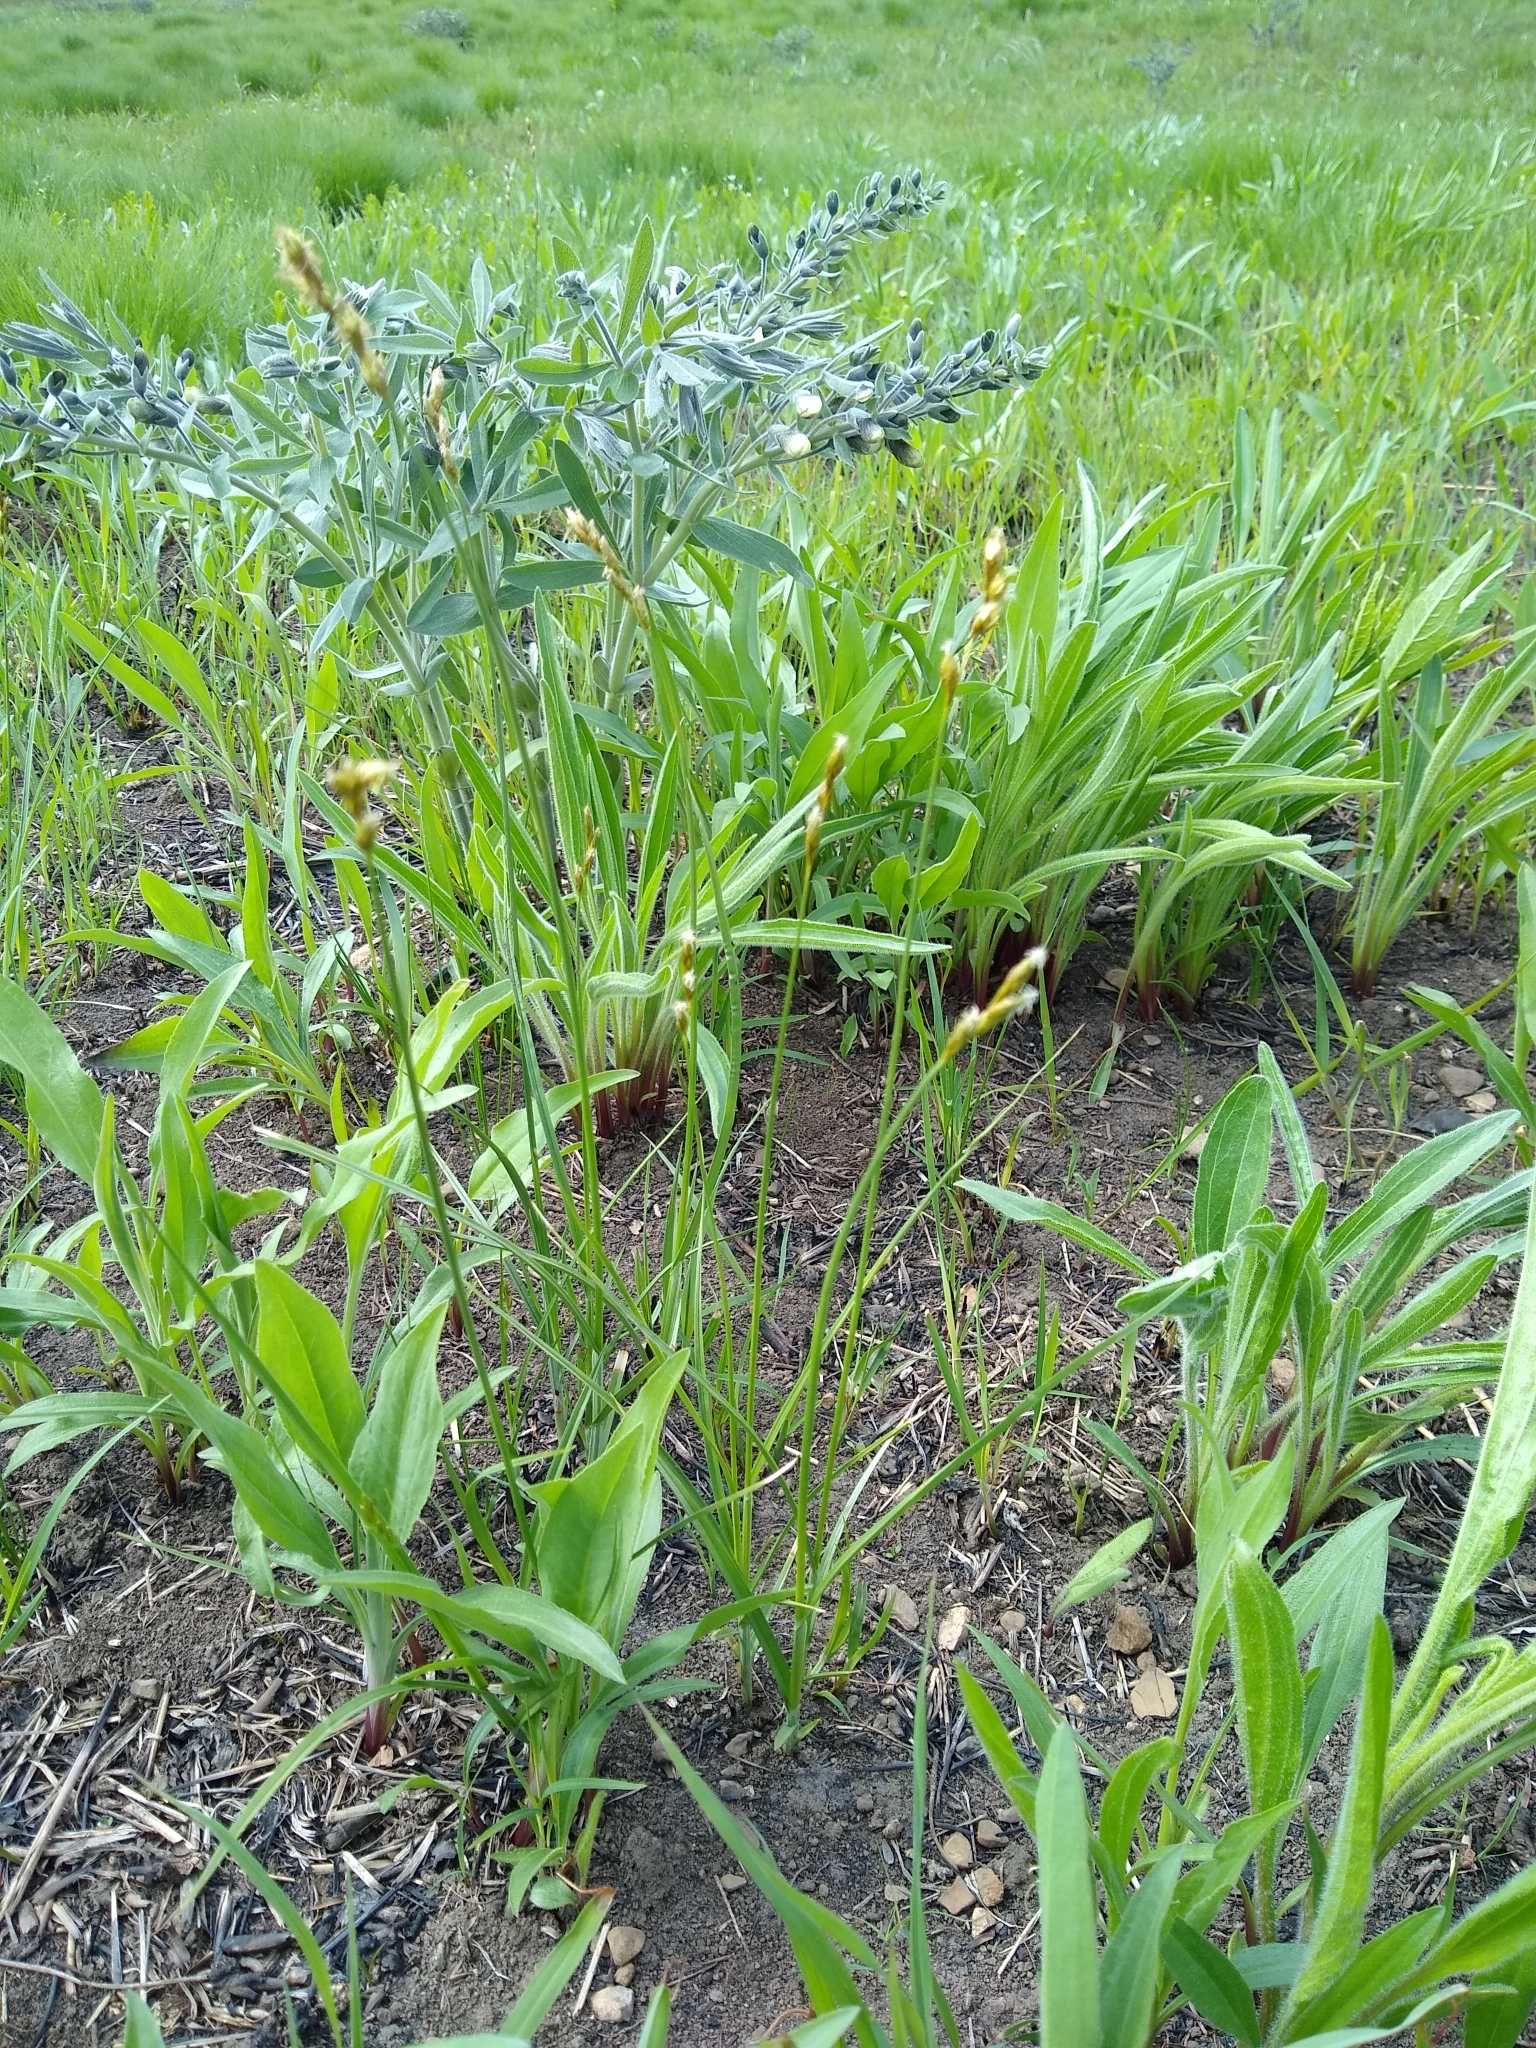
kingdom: Plantae
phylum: Tracheophyta
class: Magnoliopsida
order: Fabales
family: Fabaceae
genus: Baptisia
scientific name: Baptisia bracteata
